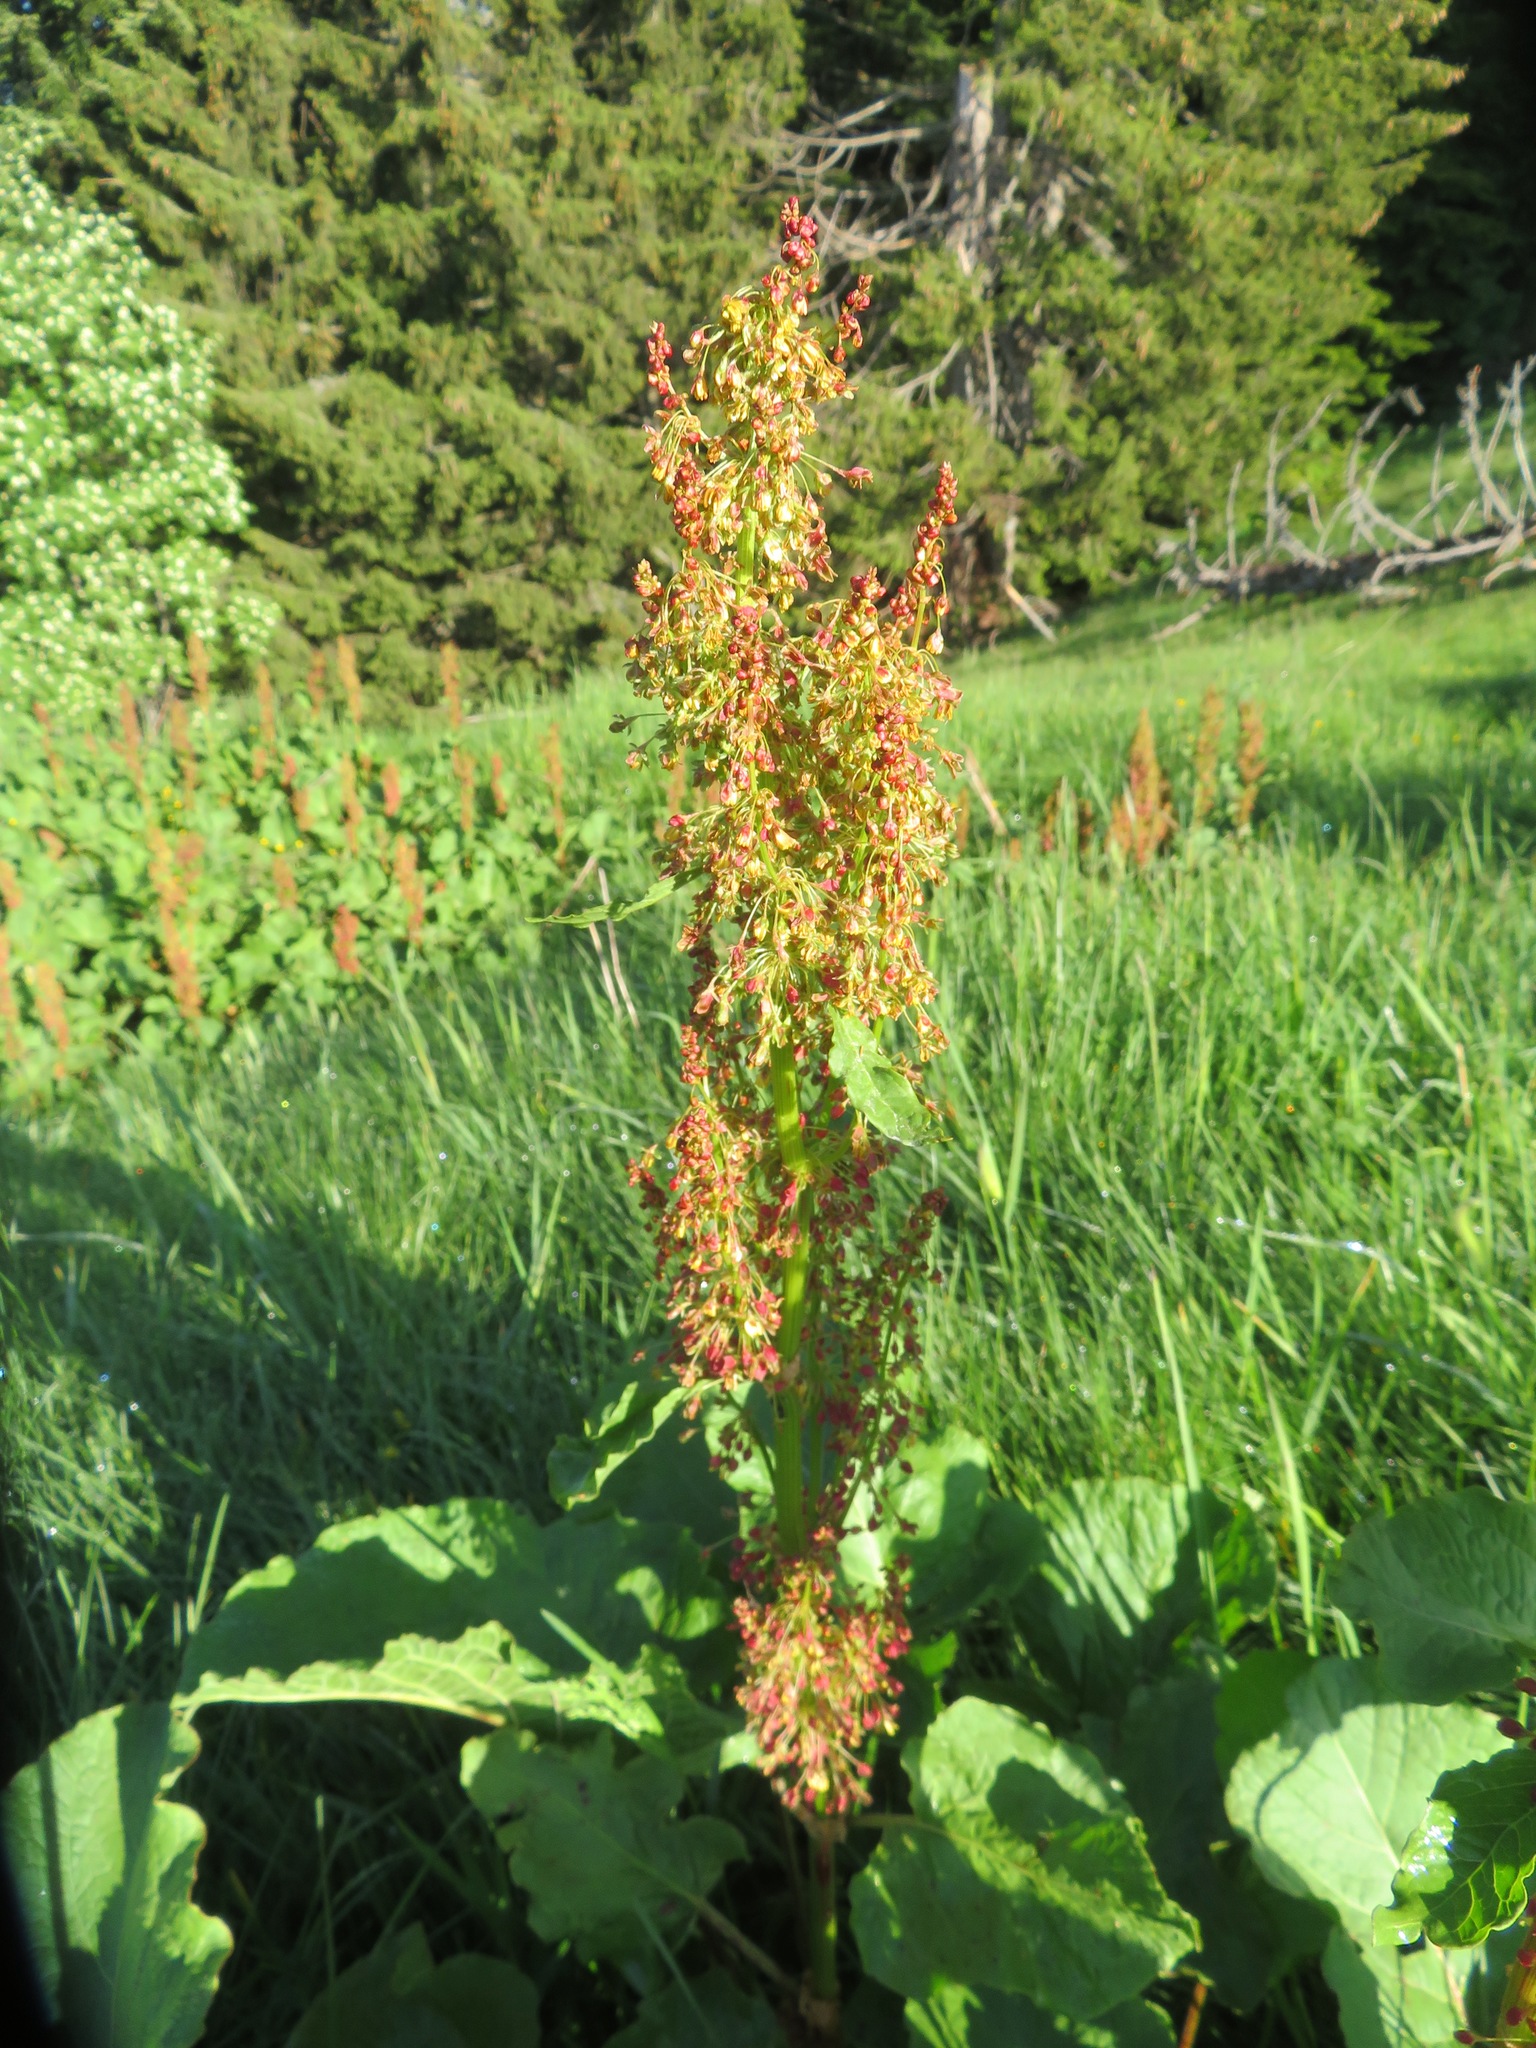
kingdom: Plantae
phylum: Tracheophyta
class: Magnoliopsida
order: Caryophyllales
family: Polygonaceae
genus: Rumex
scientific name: Rumex alpinus
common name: Alpine dock
